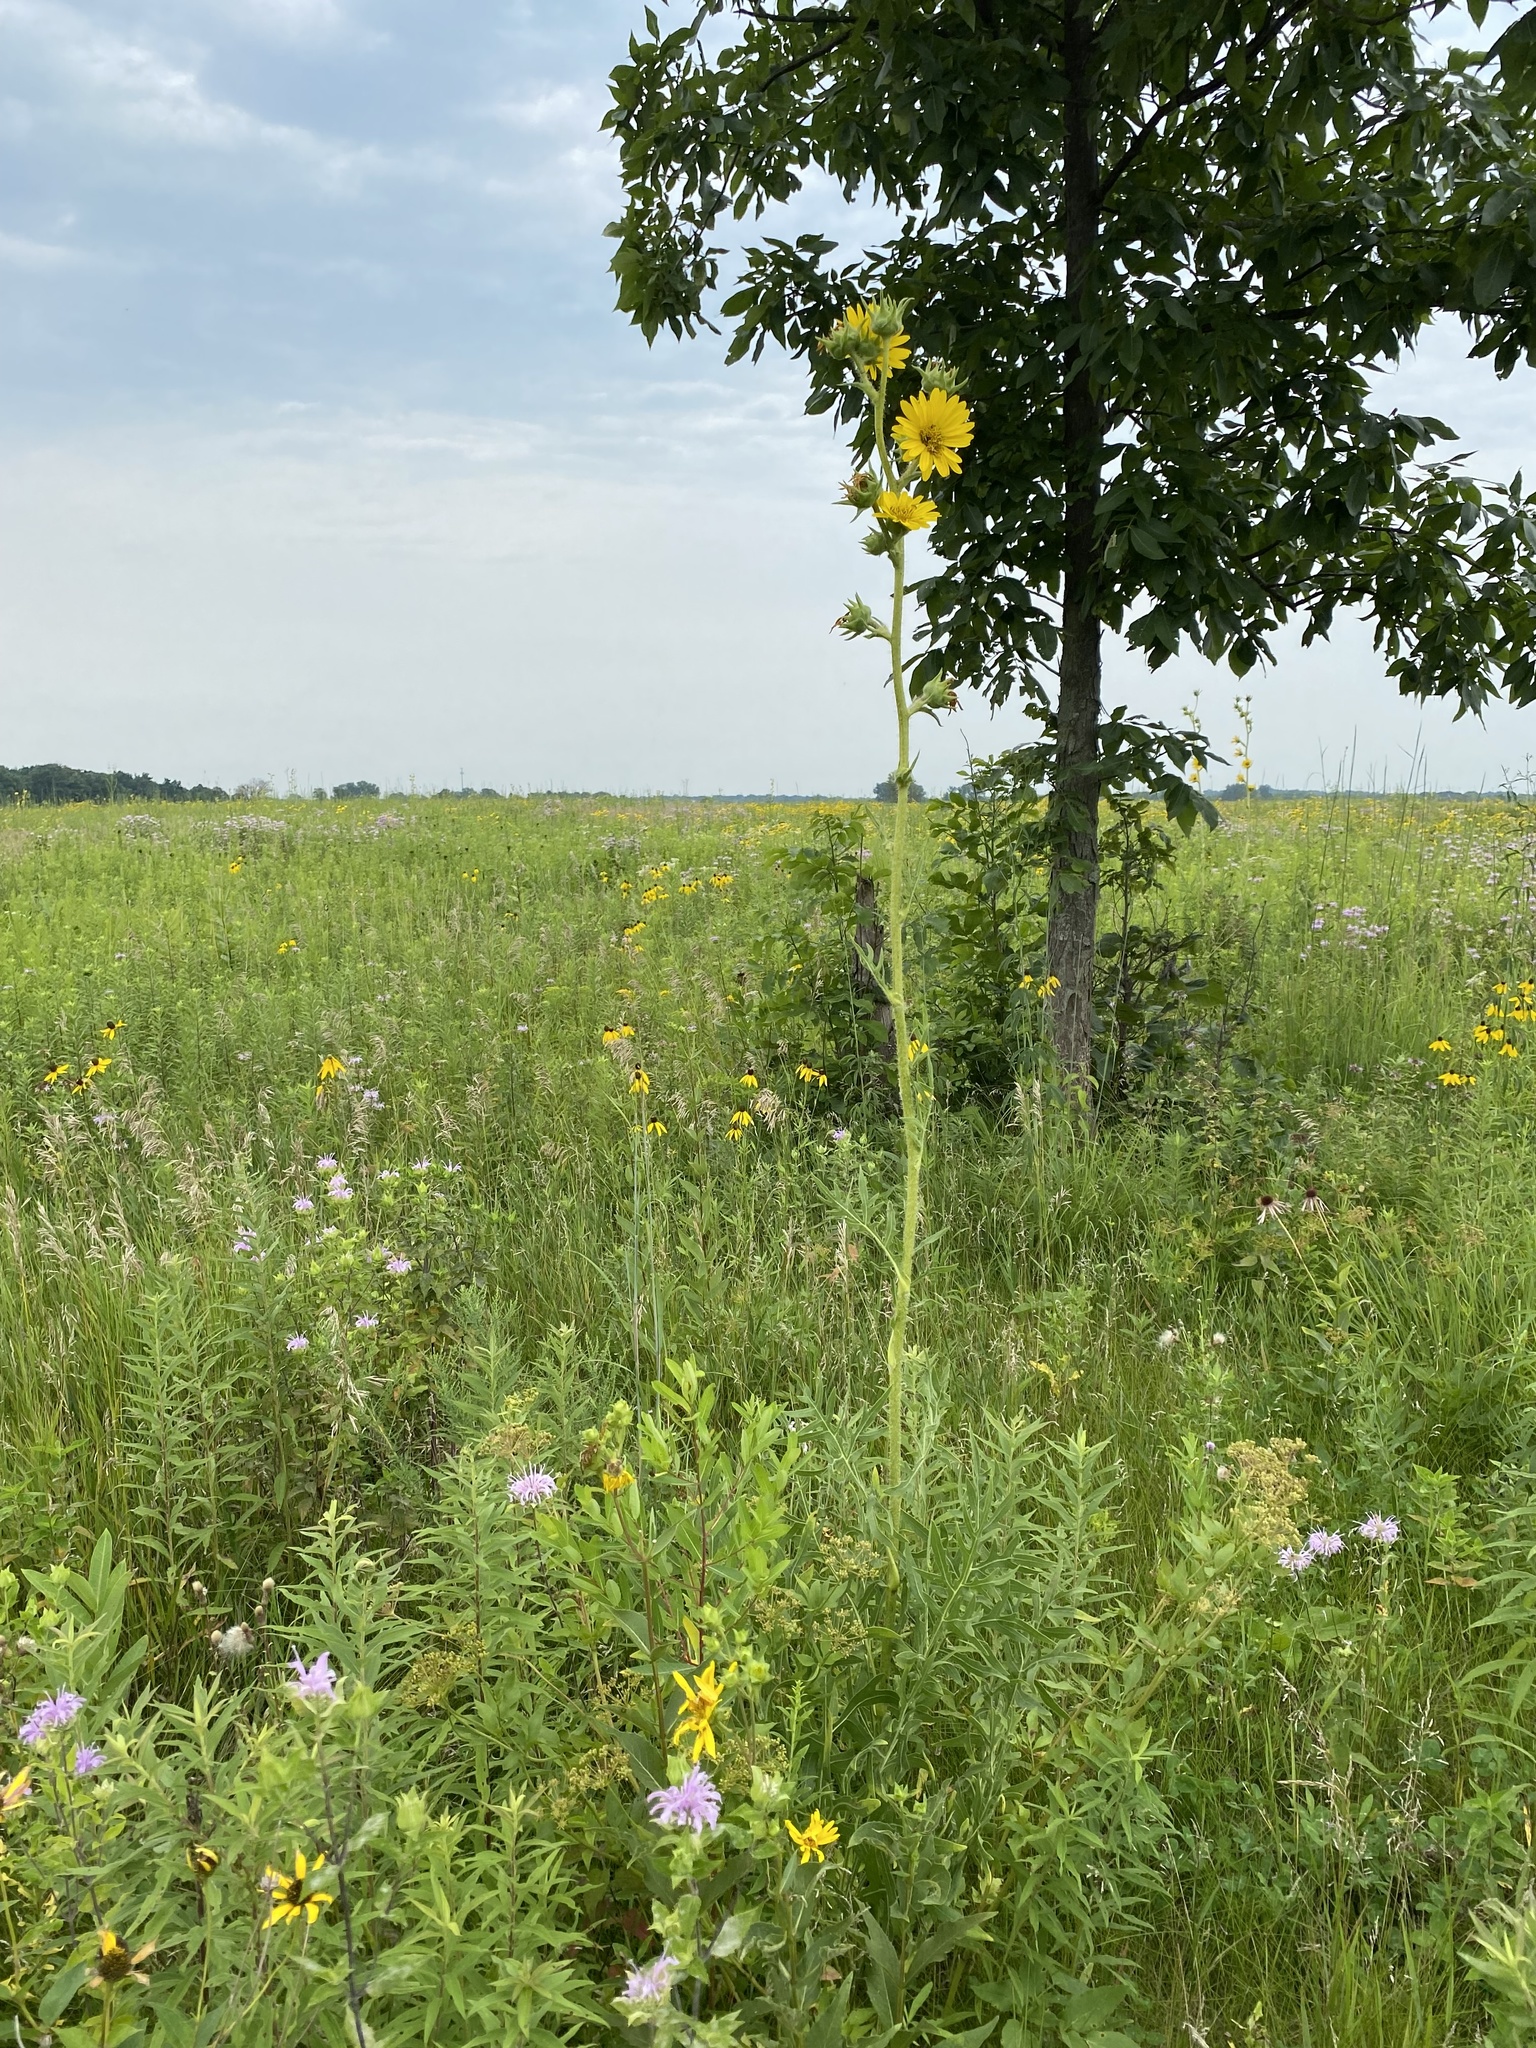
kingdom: Plantae
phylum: Tracheophyta
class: Magnoliopsida
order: Asterales
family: Asteraceae
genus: Silphium
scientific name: Silphium laciniatum
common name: Polarplant
